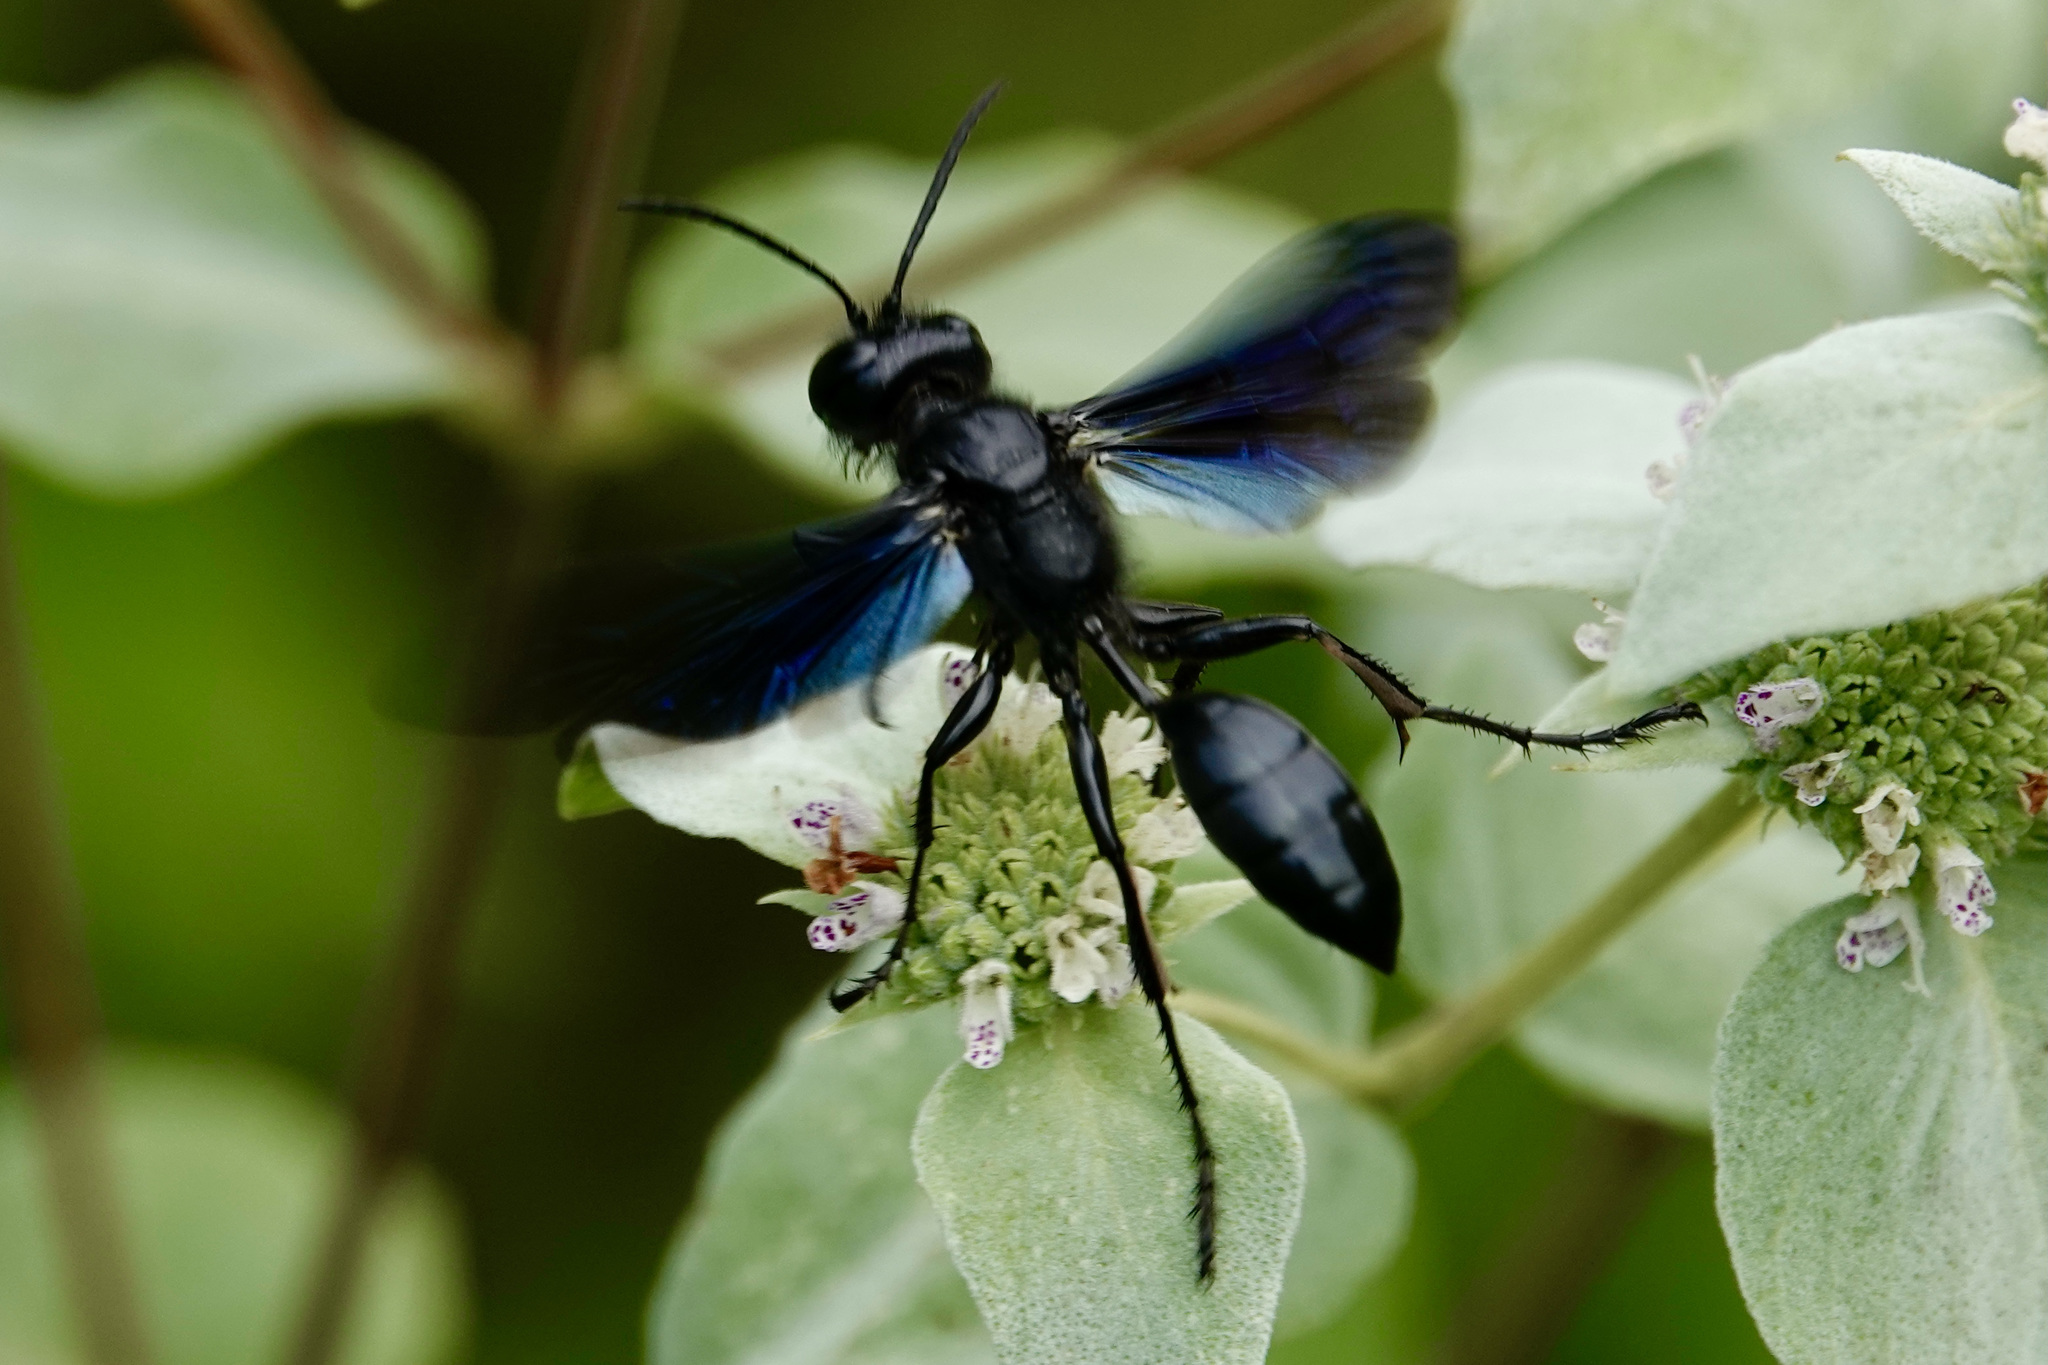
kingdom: Animalia
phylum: Arthropoda
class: Insecta
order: Hymenoptera
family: Sphecidae
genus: Isodontia
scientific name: Isodontia philadelphica
